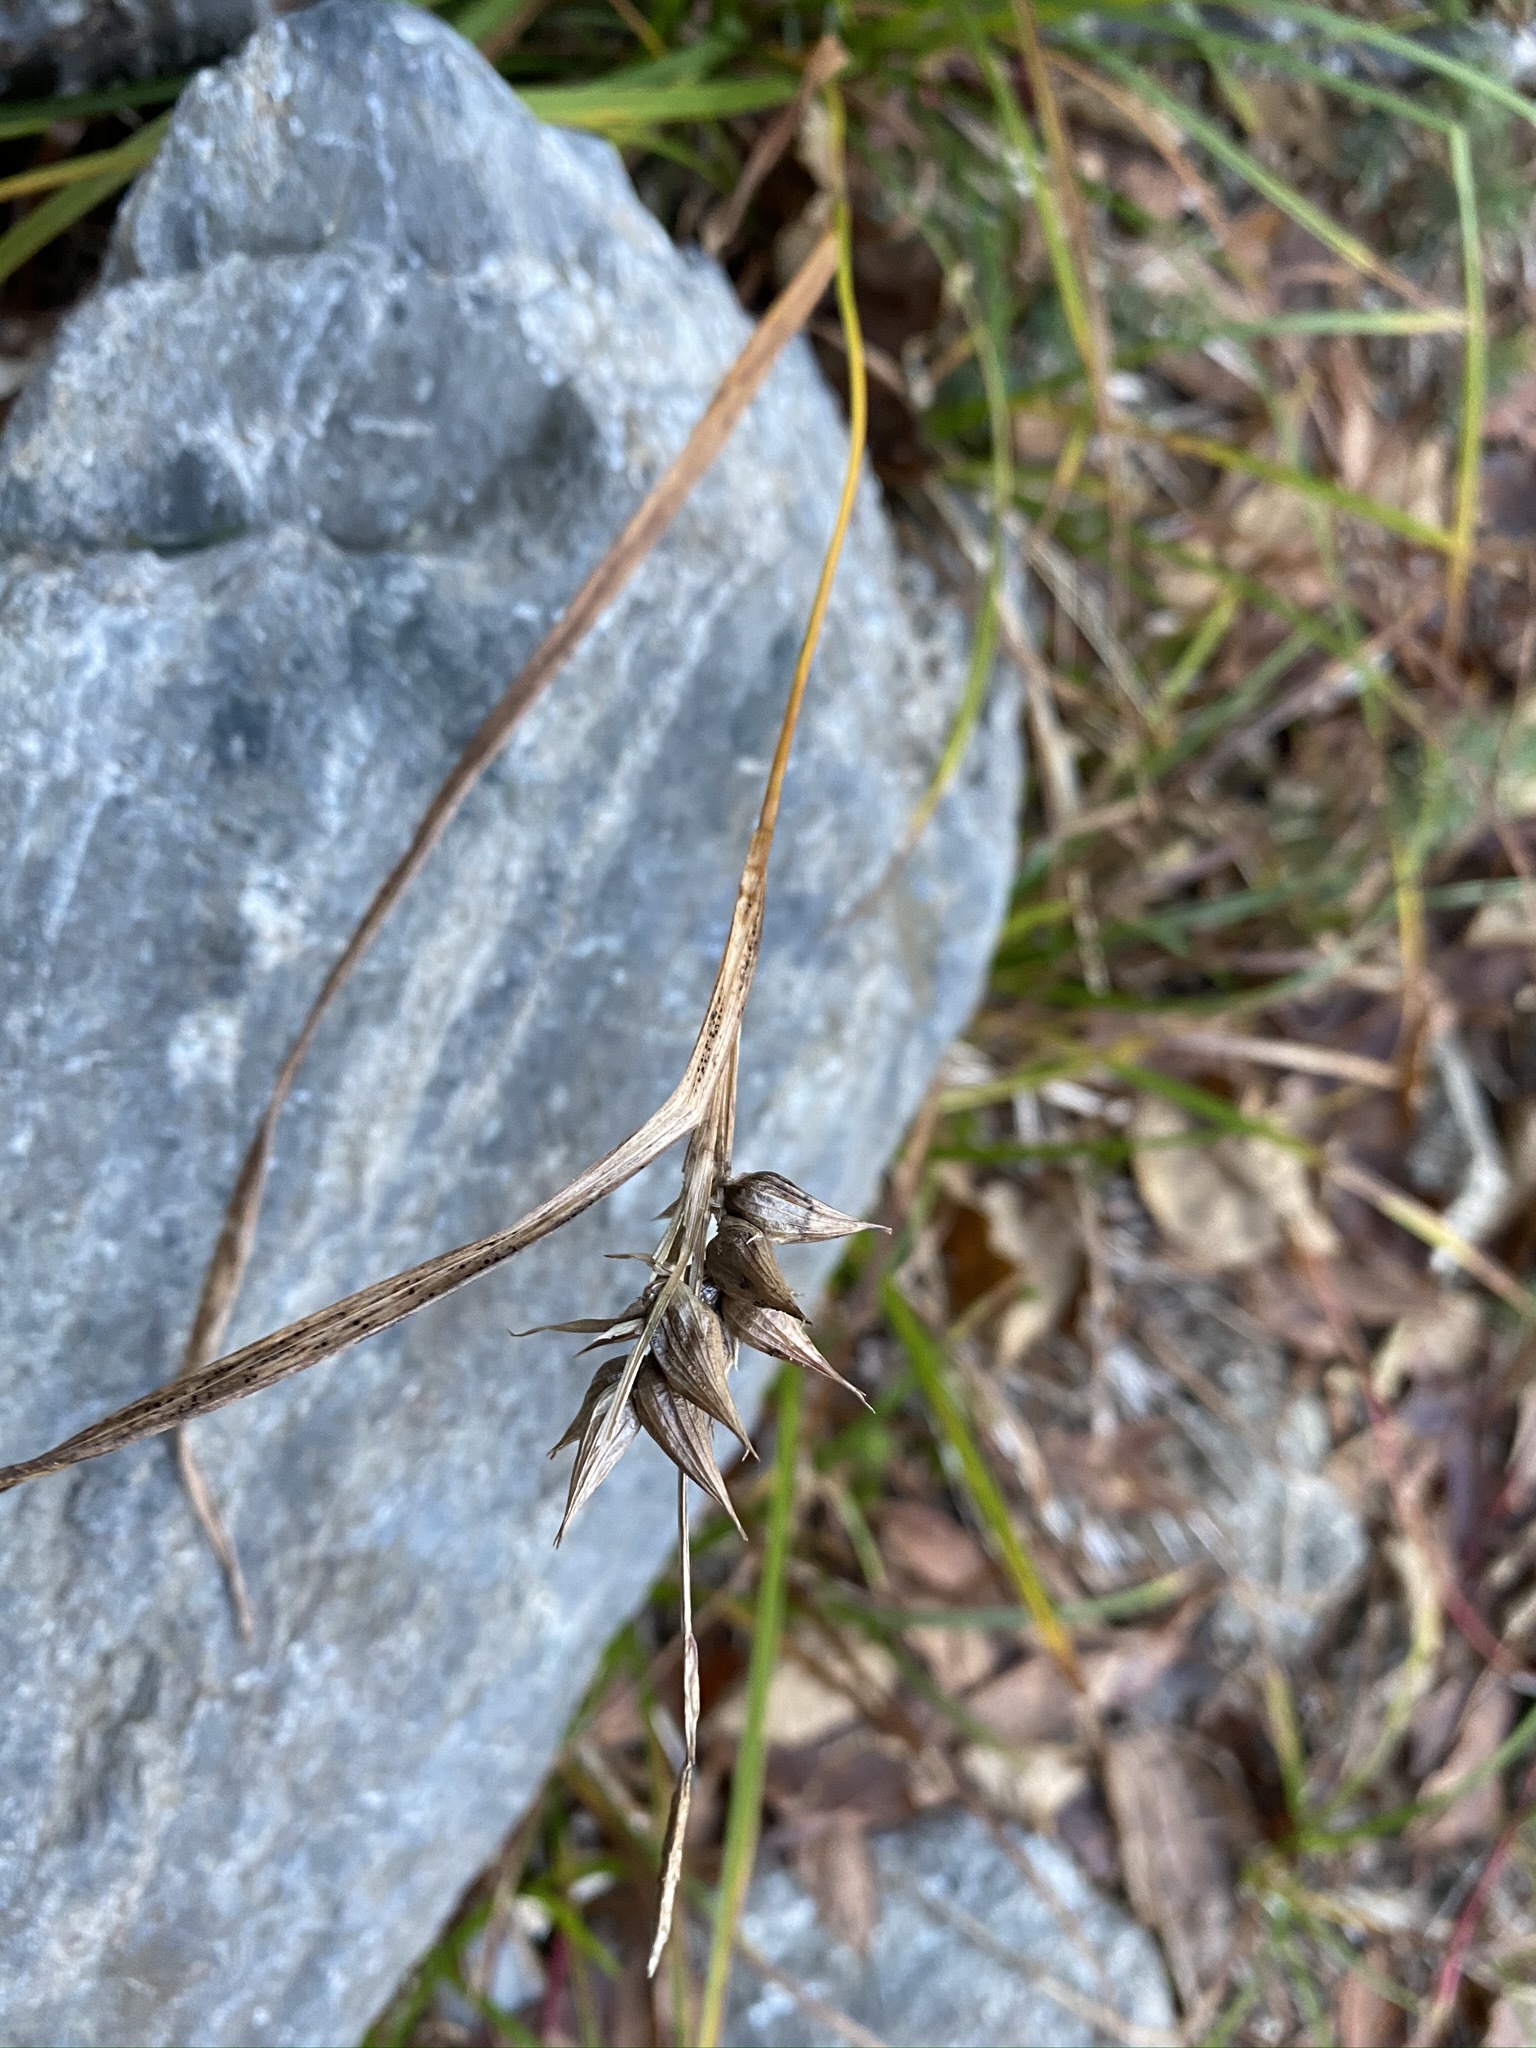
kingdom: Plantae
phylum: Tracheophyta
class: Liliopsida
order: Poales
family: Cyperaceae
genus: Carex
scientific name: Carex intumescens
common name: Greater bladder sedge
